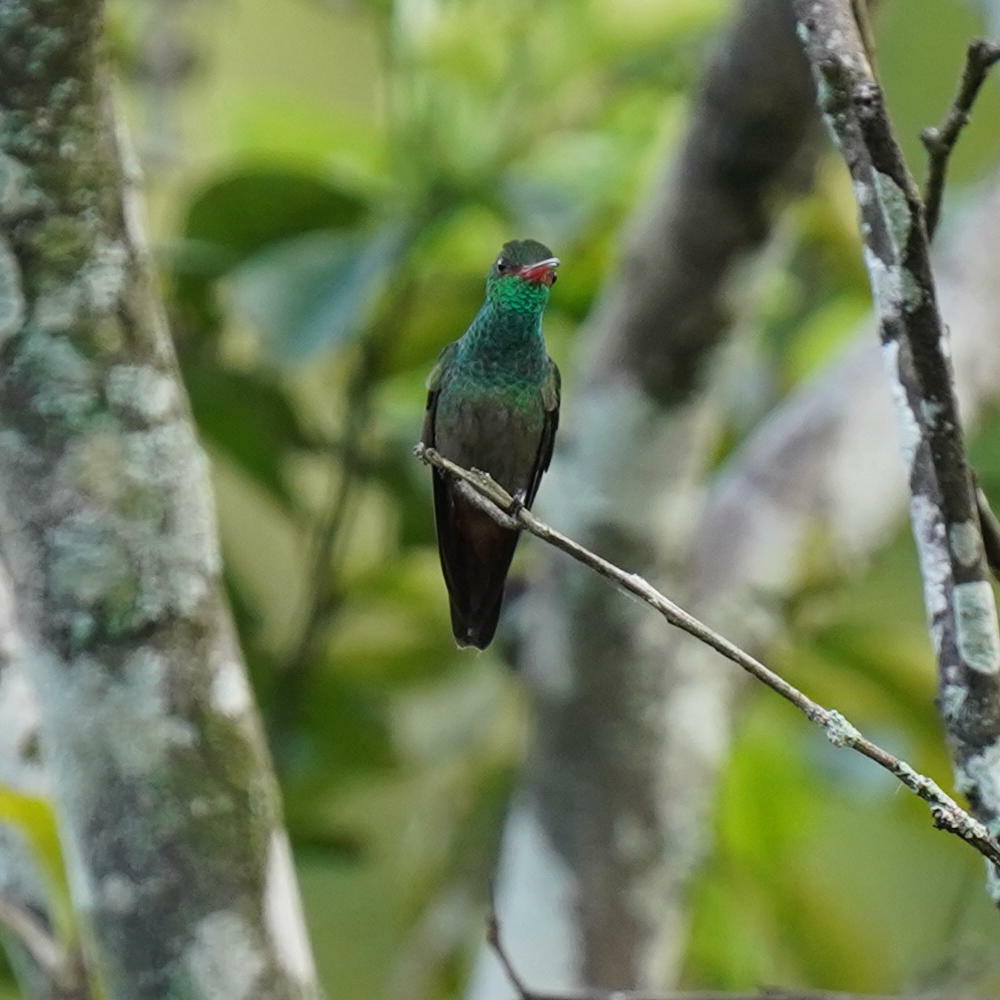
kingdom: Animalia
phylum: Chordata
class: Aves
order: Apodiformes
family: Trochilidae
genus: Amazilia
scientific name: Amazilia tzacatl
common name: Rufous-tailed hummingbird
